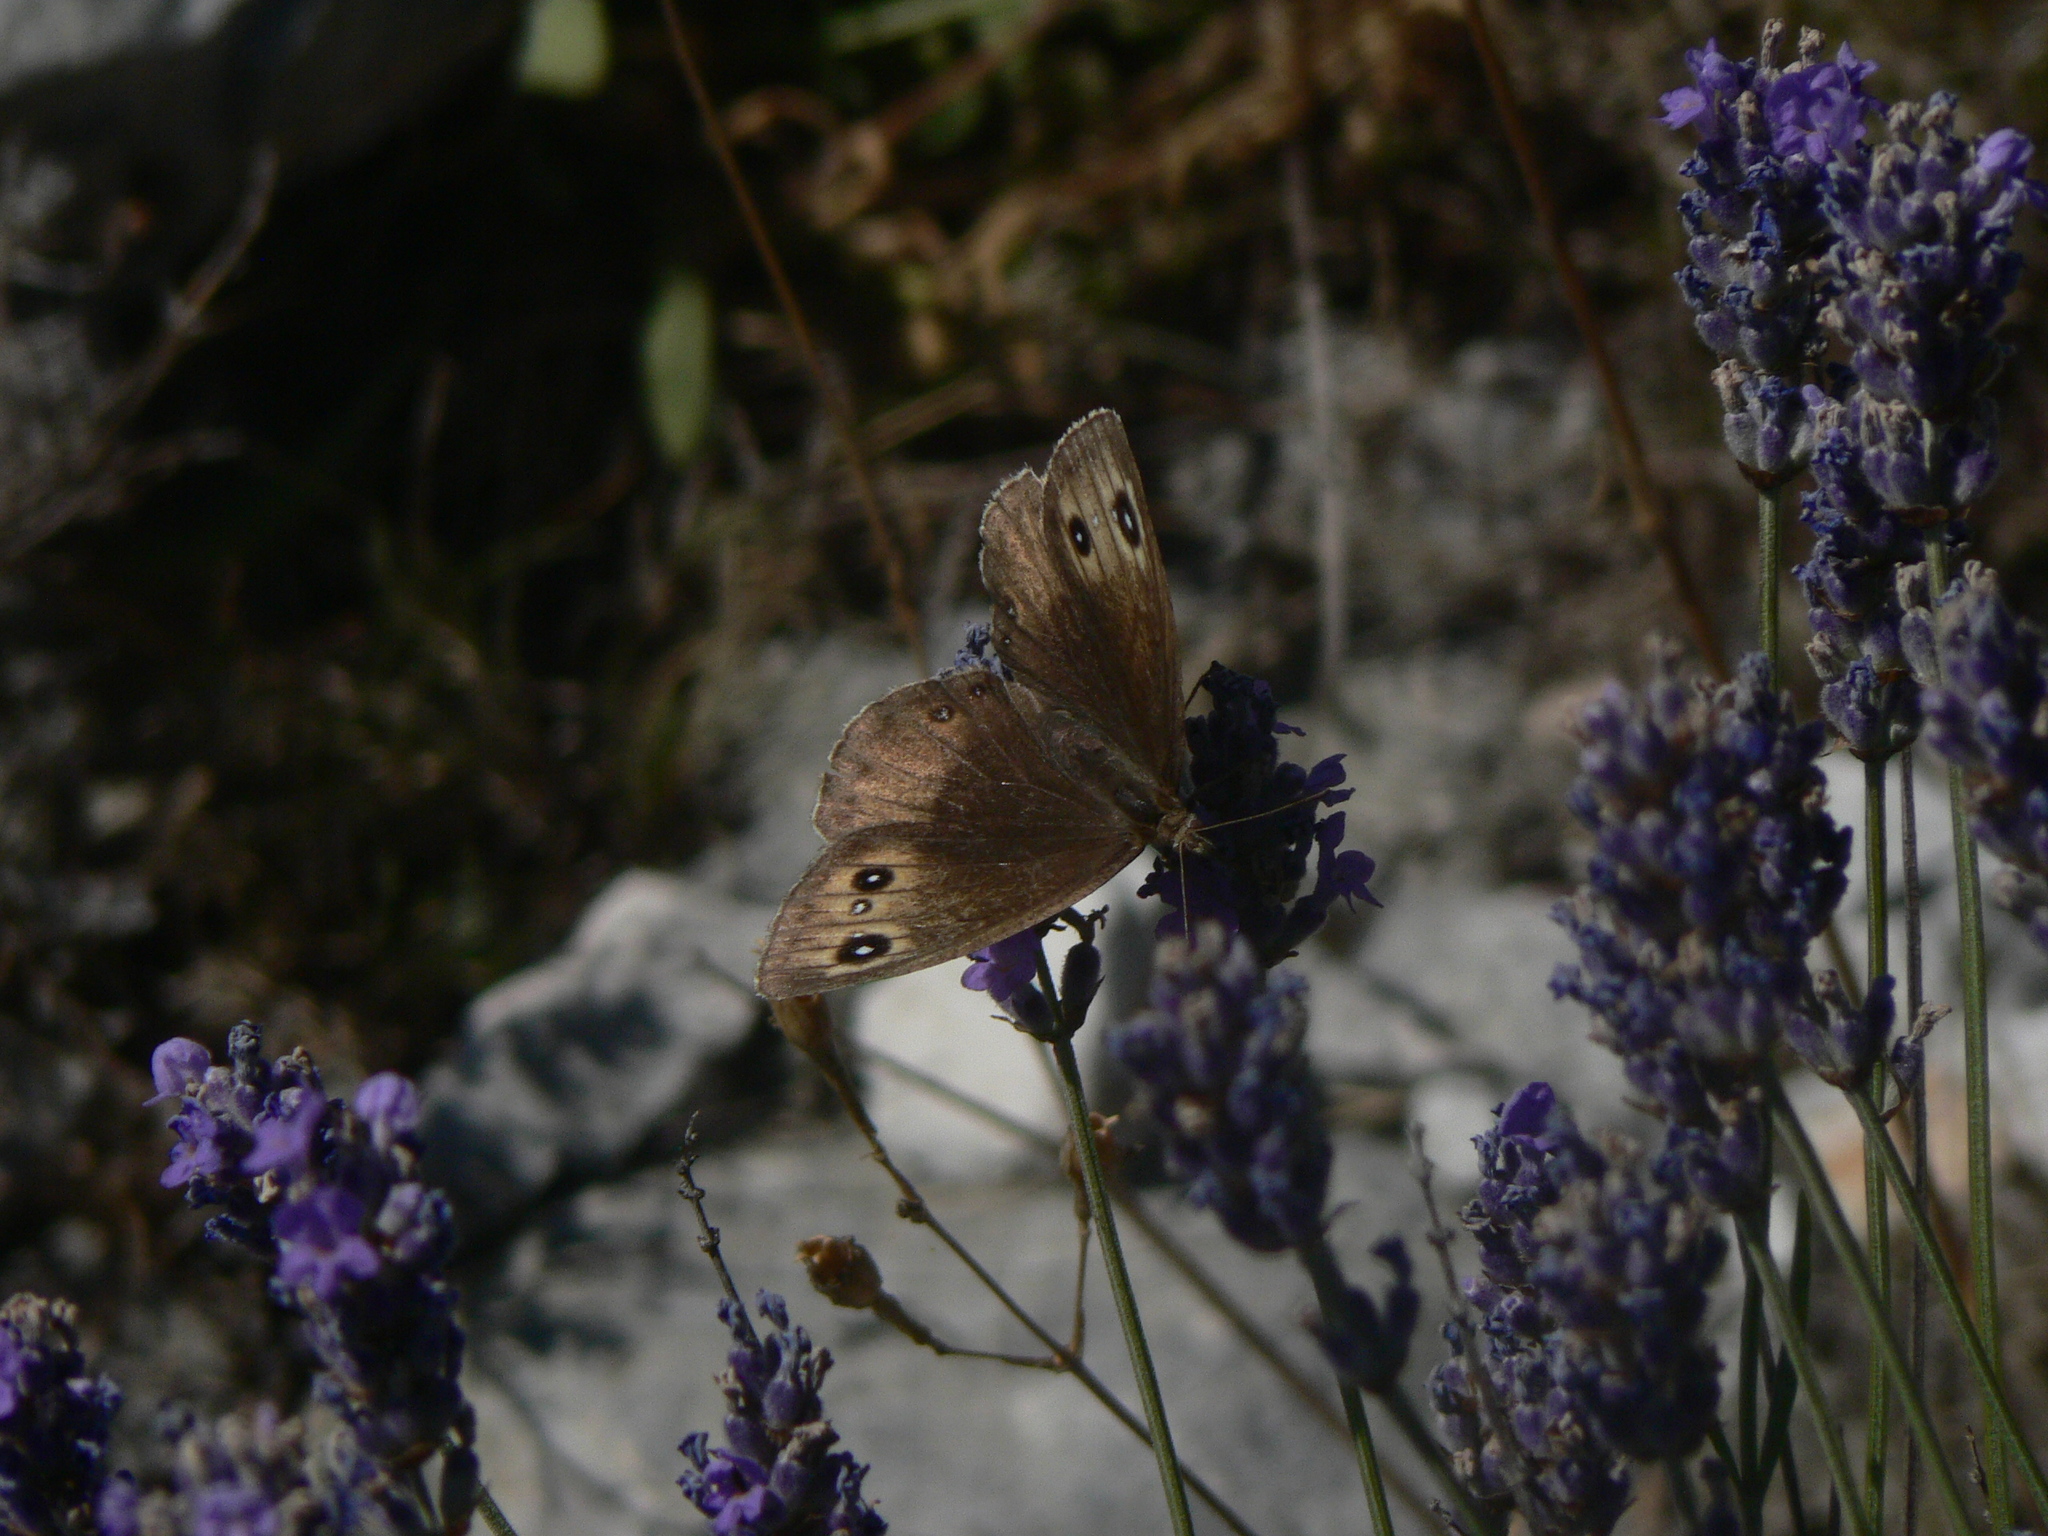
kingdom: Animalia
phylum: Arthropoda
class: Insecta
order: Lepidoptera
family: Nymphalidae
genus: Satyrus
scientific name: Satyrus ferula
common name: Great sooty satyr
